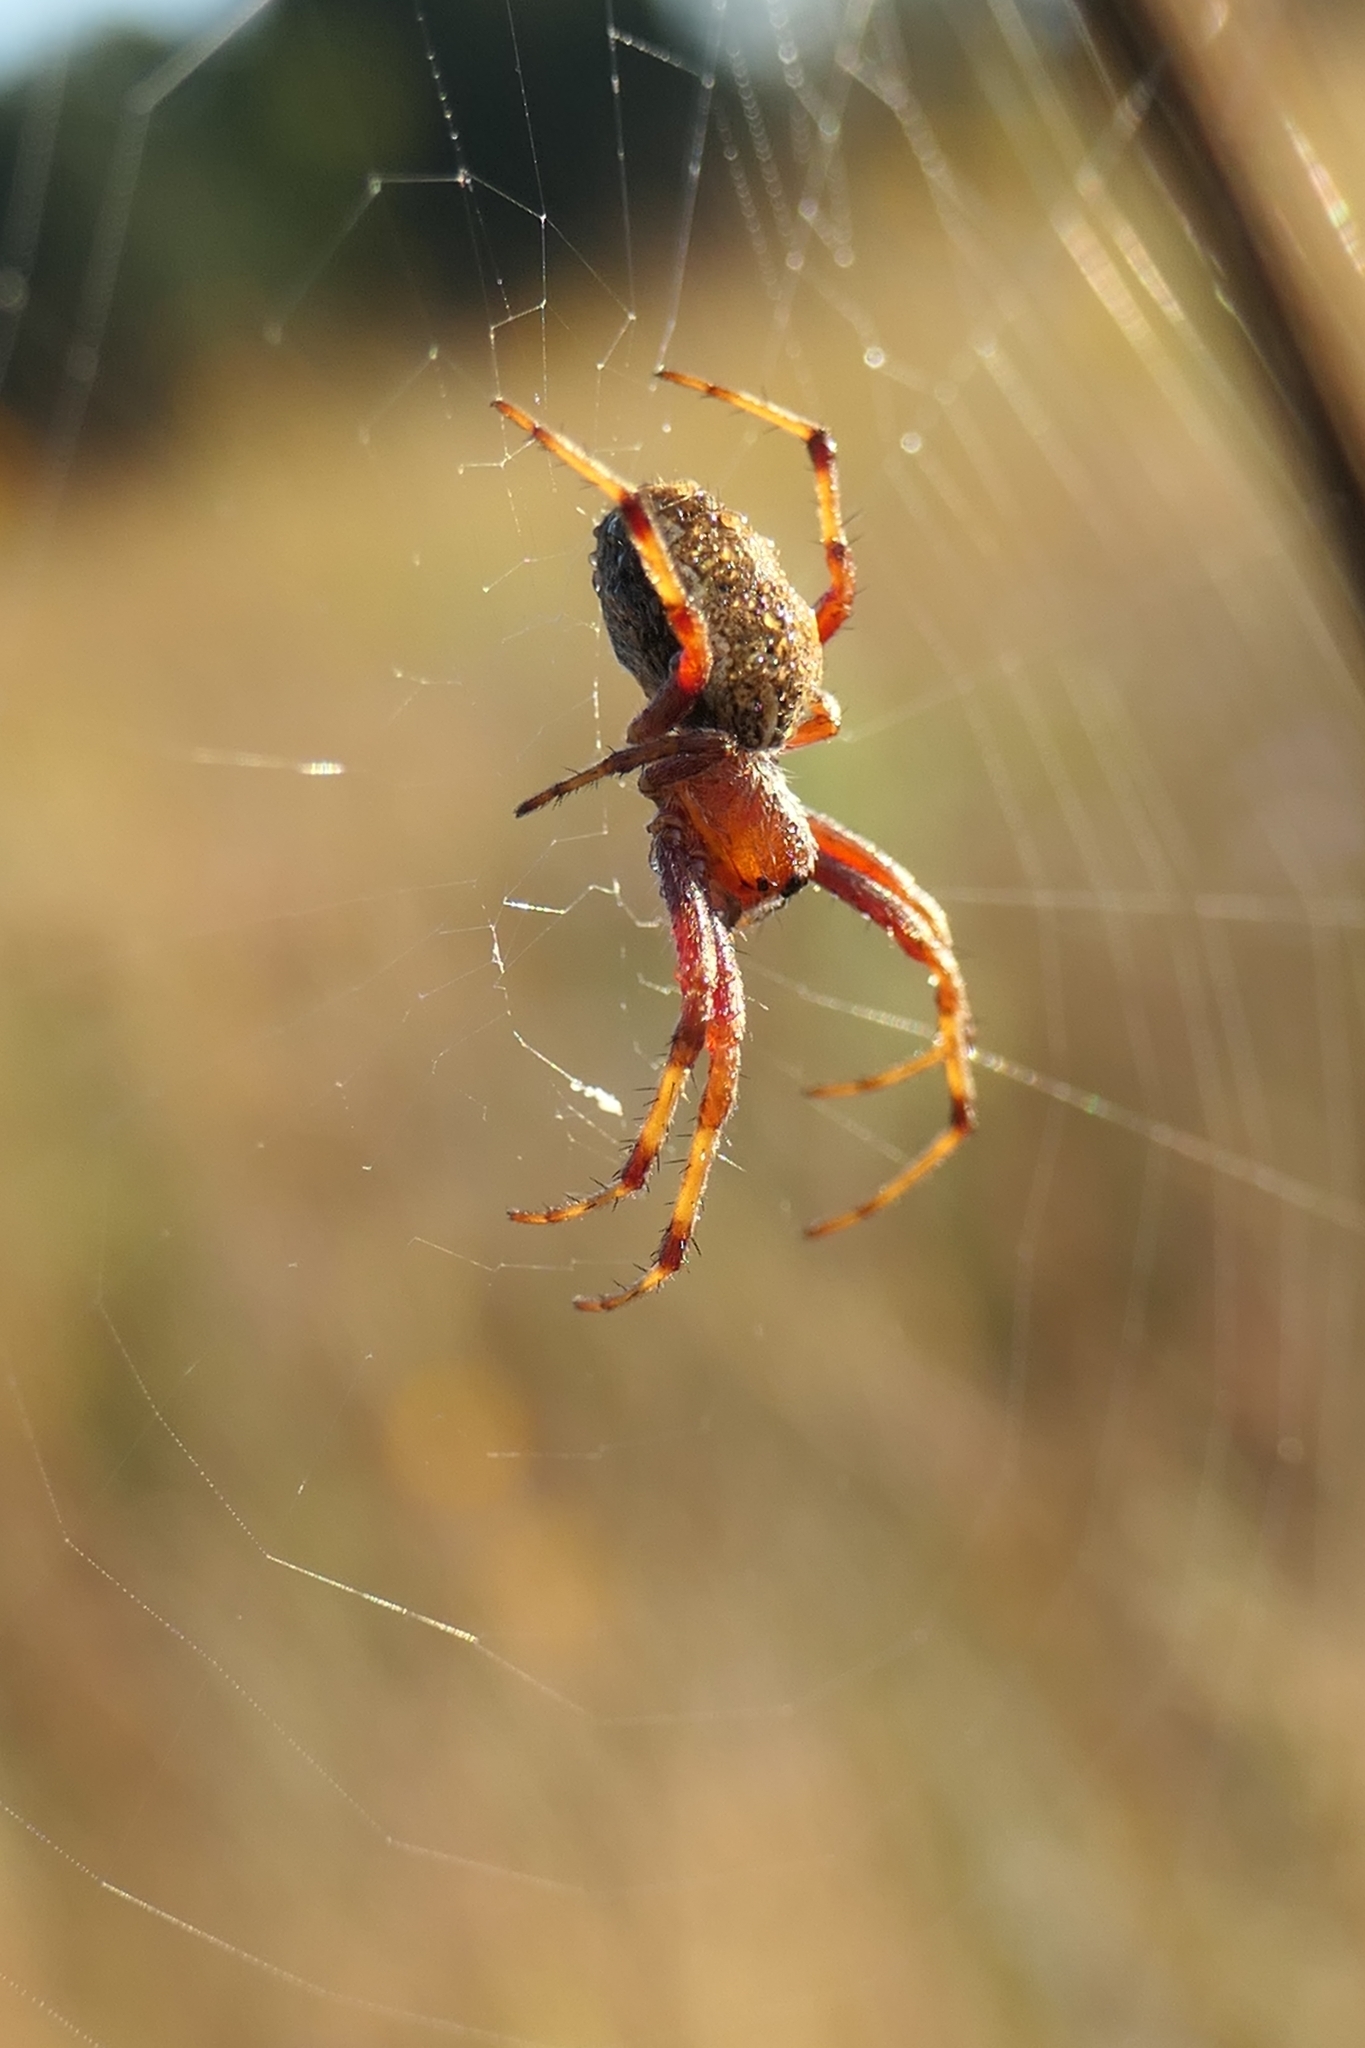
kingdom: Animalia
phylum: Arthropoda
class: Arachnida
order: Araneae
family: Araneidae
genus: Salsa
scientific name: Salsa fuliginata
